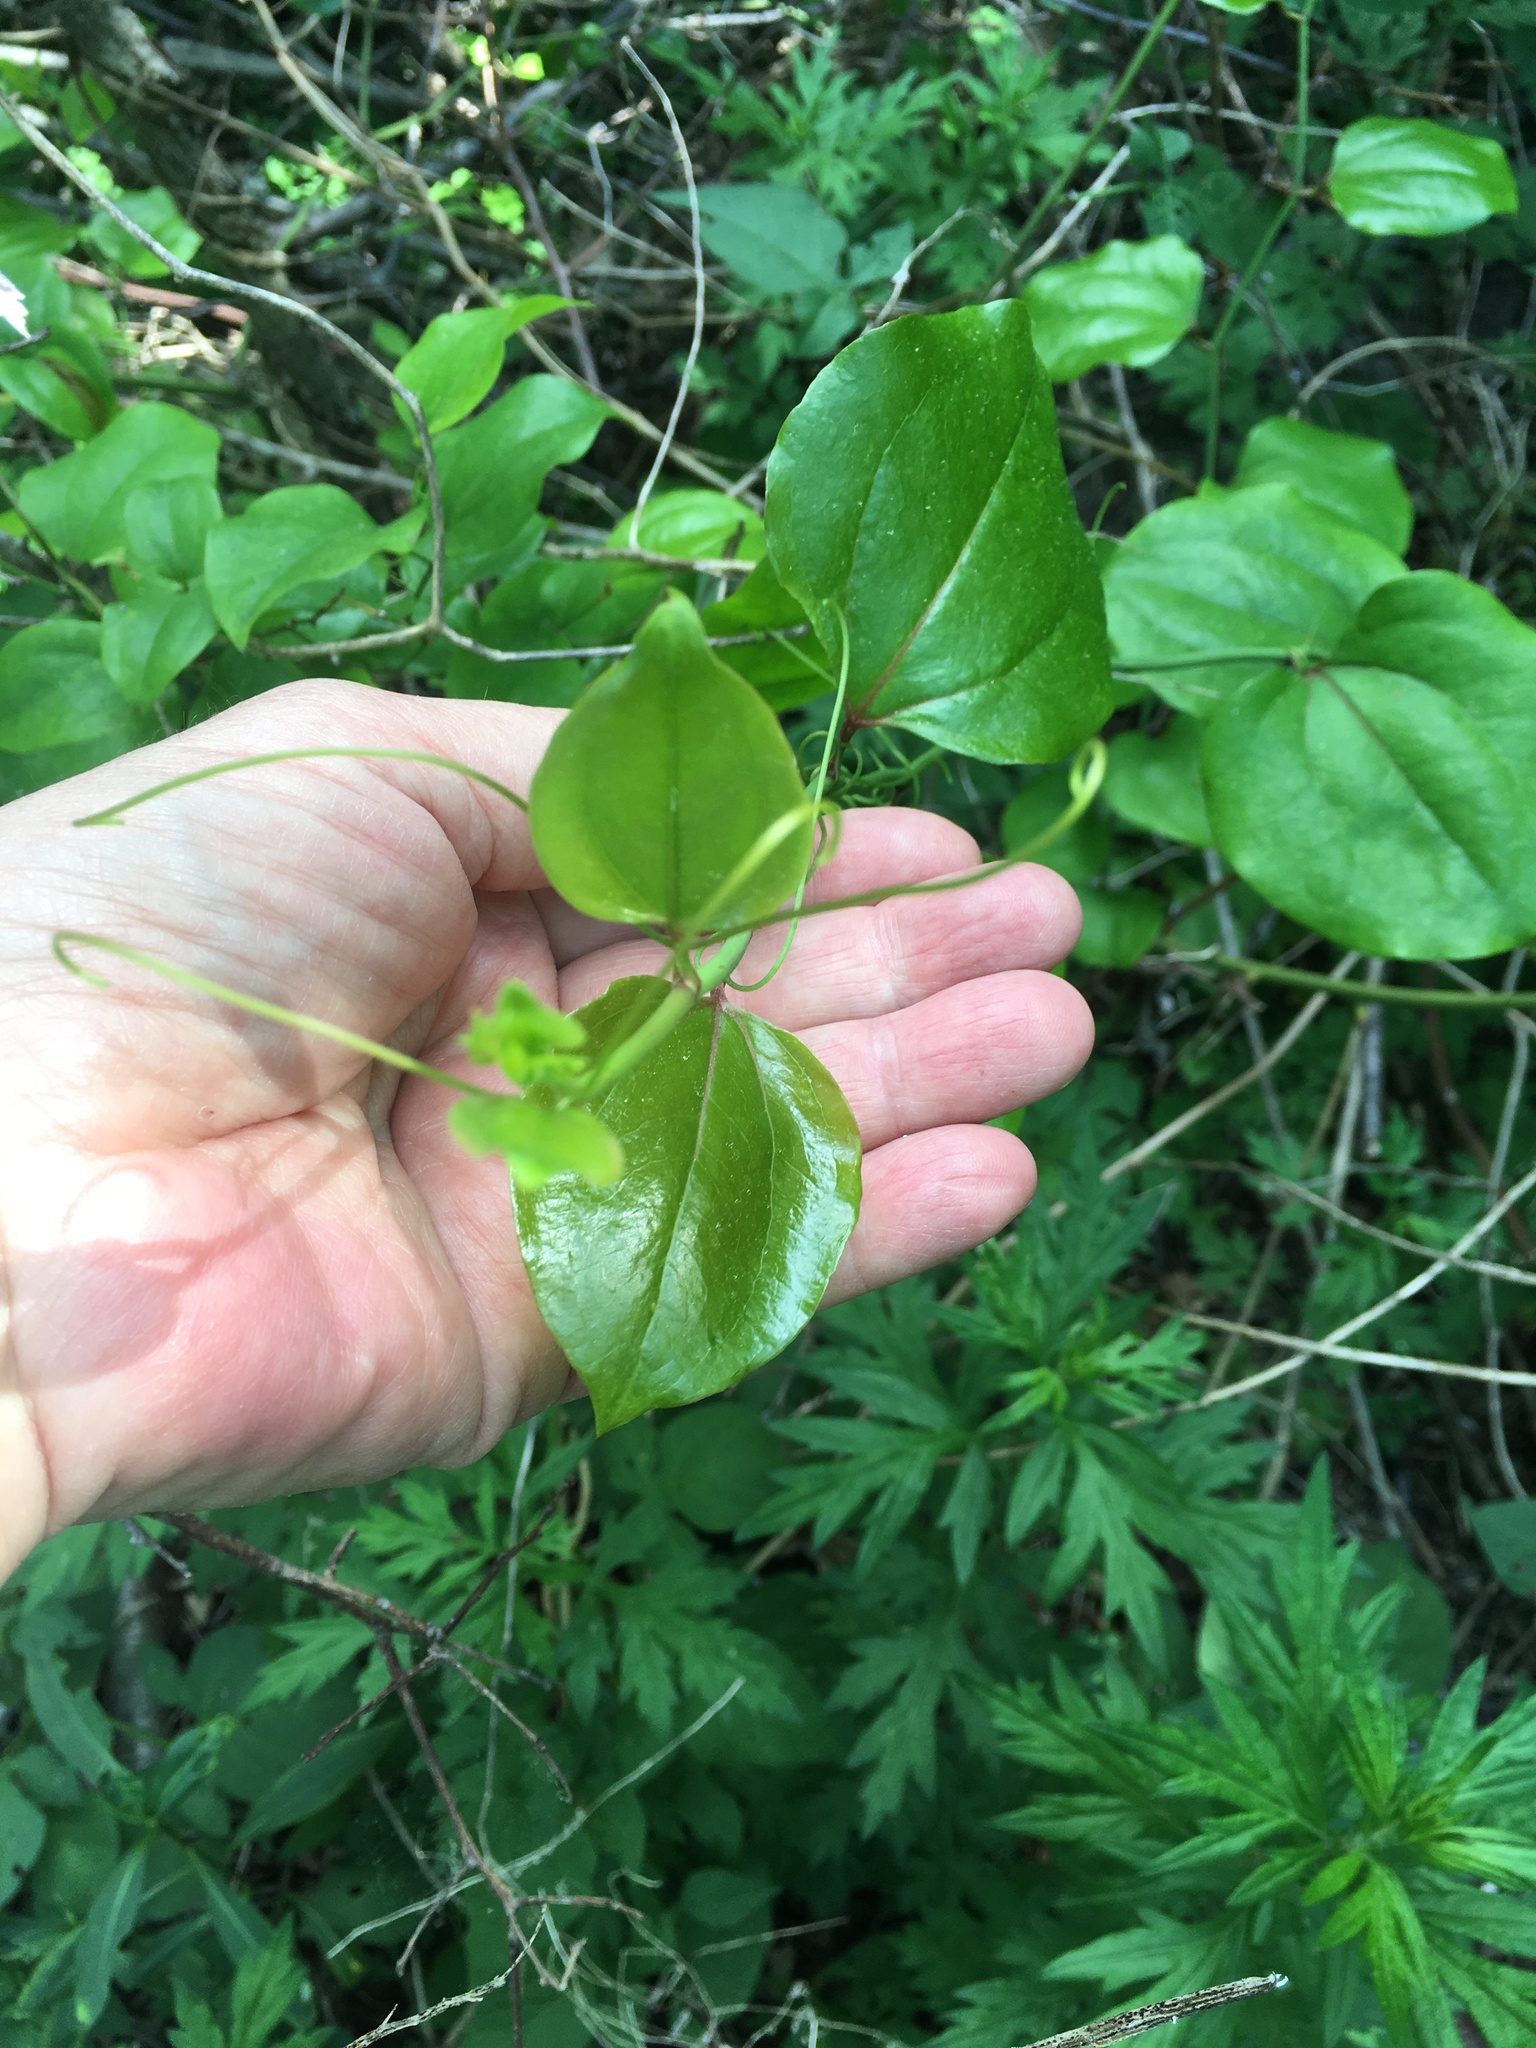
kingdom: Plantae
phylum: Tracheophyta
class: Liliopsida
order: Liliales
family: Smilacaceae
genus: Smilax
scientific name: Smilax rotundifolia
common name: Bullbriar
